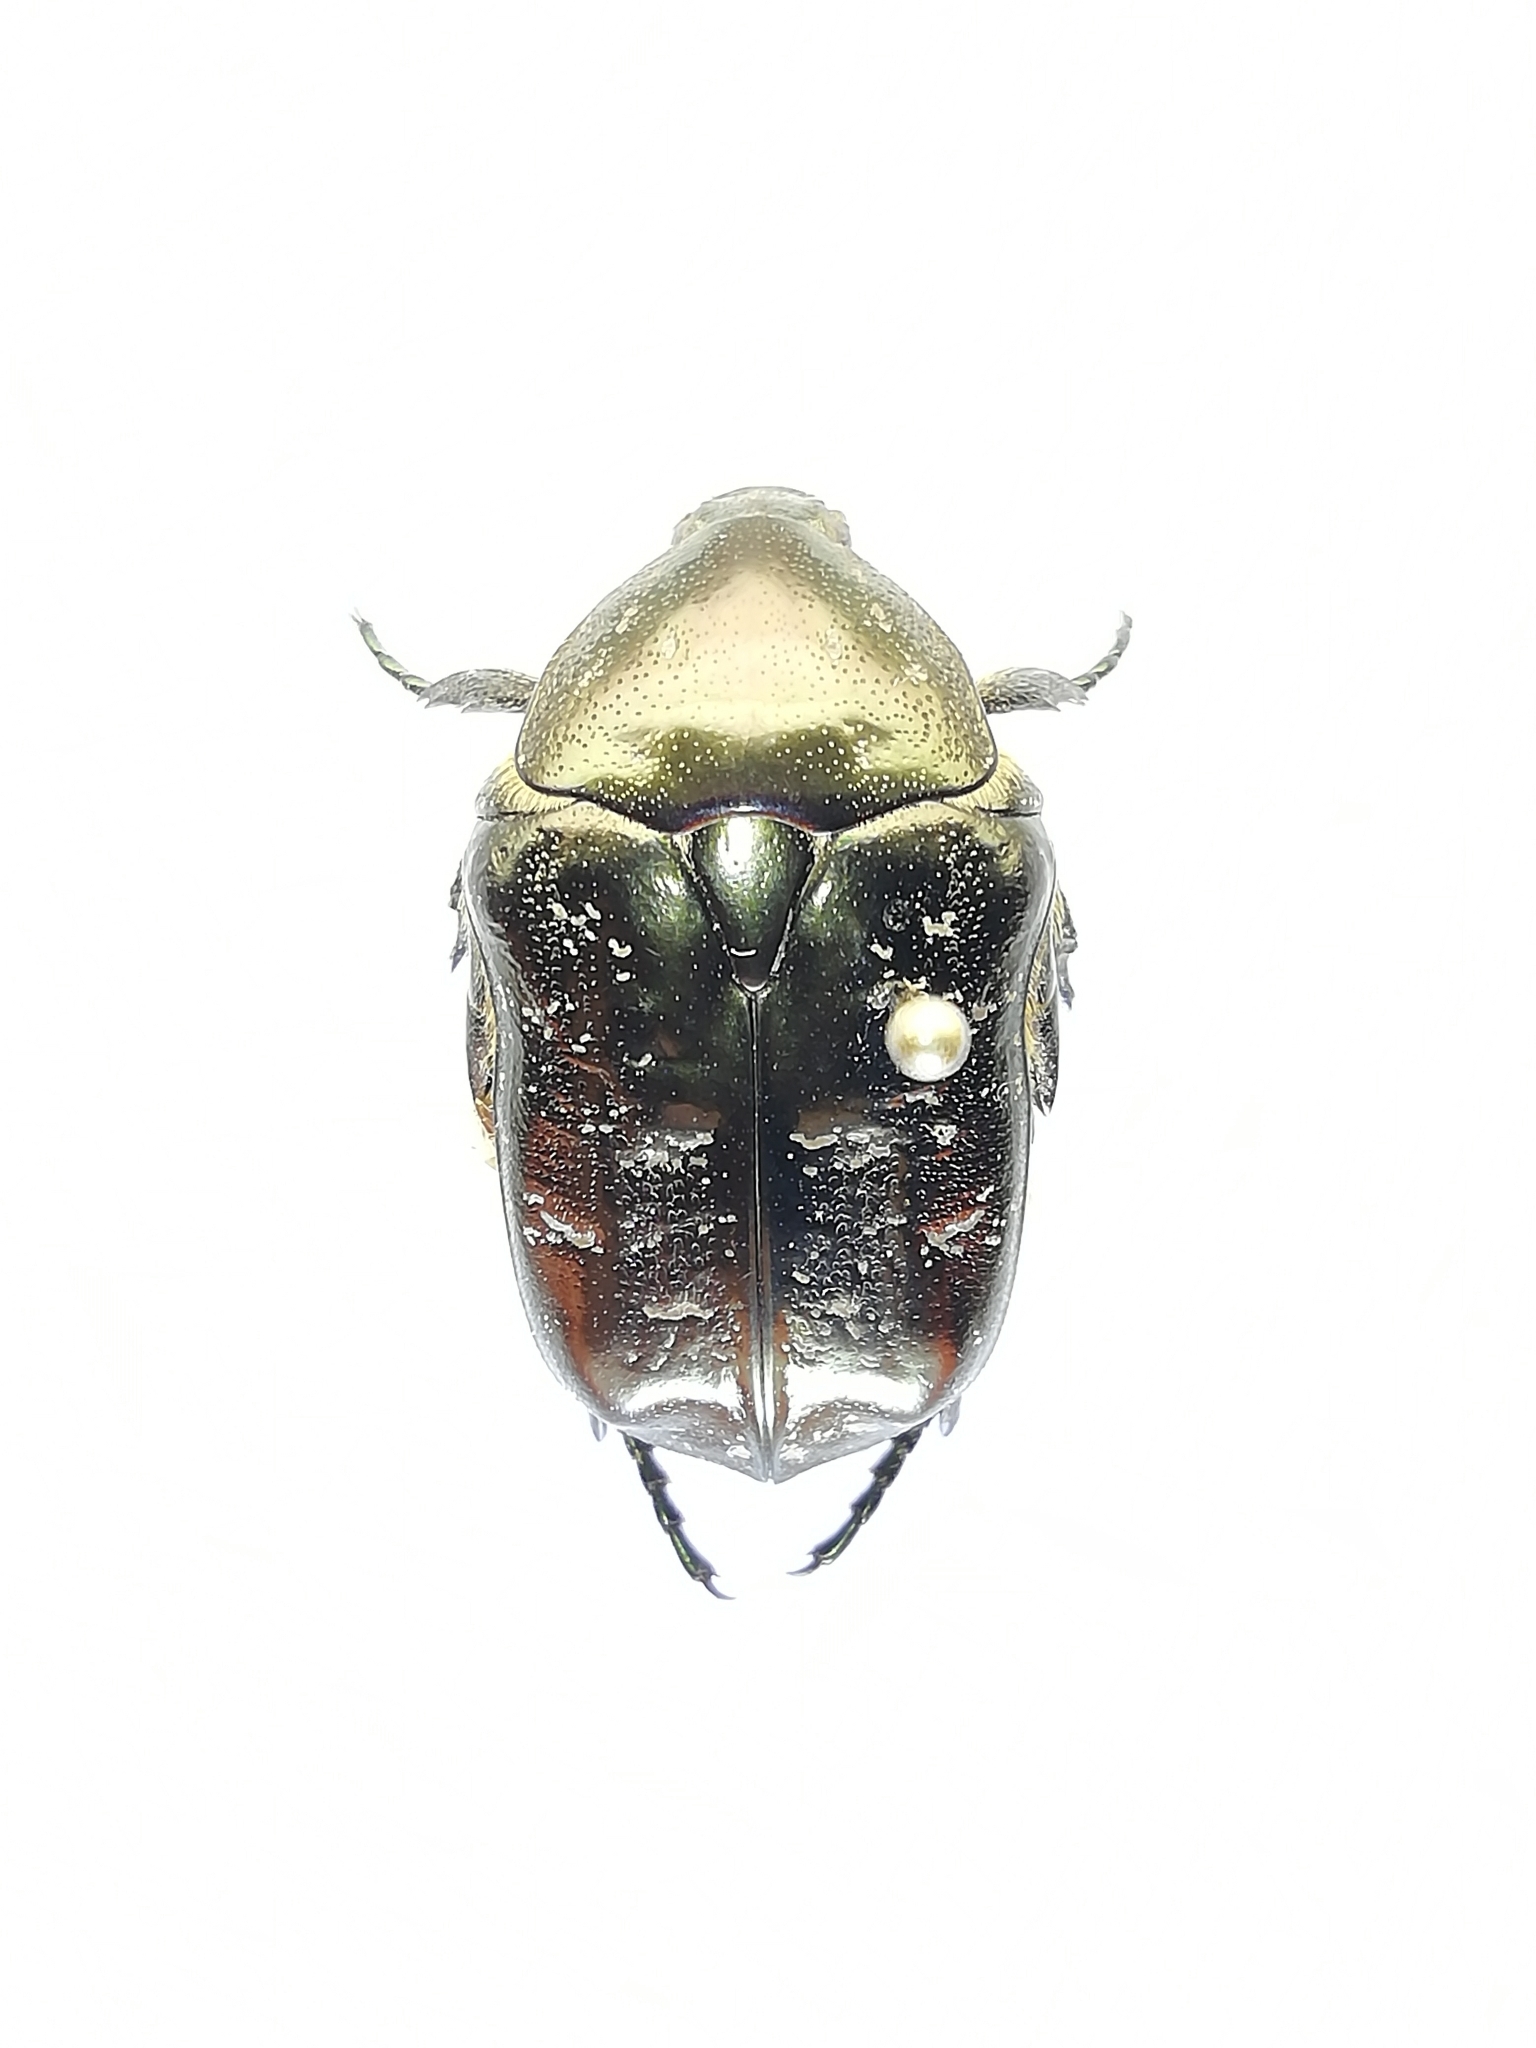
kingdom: Animalia
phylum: Arthropoda
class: Insecta
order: Coleoptera
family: Scarabaeidae
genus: Protaetia
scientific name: Protaetia marmorata
